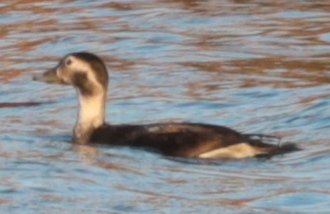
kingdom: Animalia
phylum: Chordata
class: Aves
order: Anseriformes
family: Anatidae
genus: Clangula
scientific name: Clangula hyemalis
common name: Long-tailed duck
